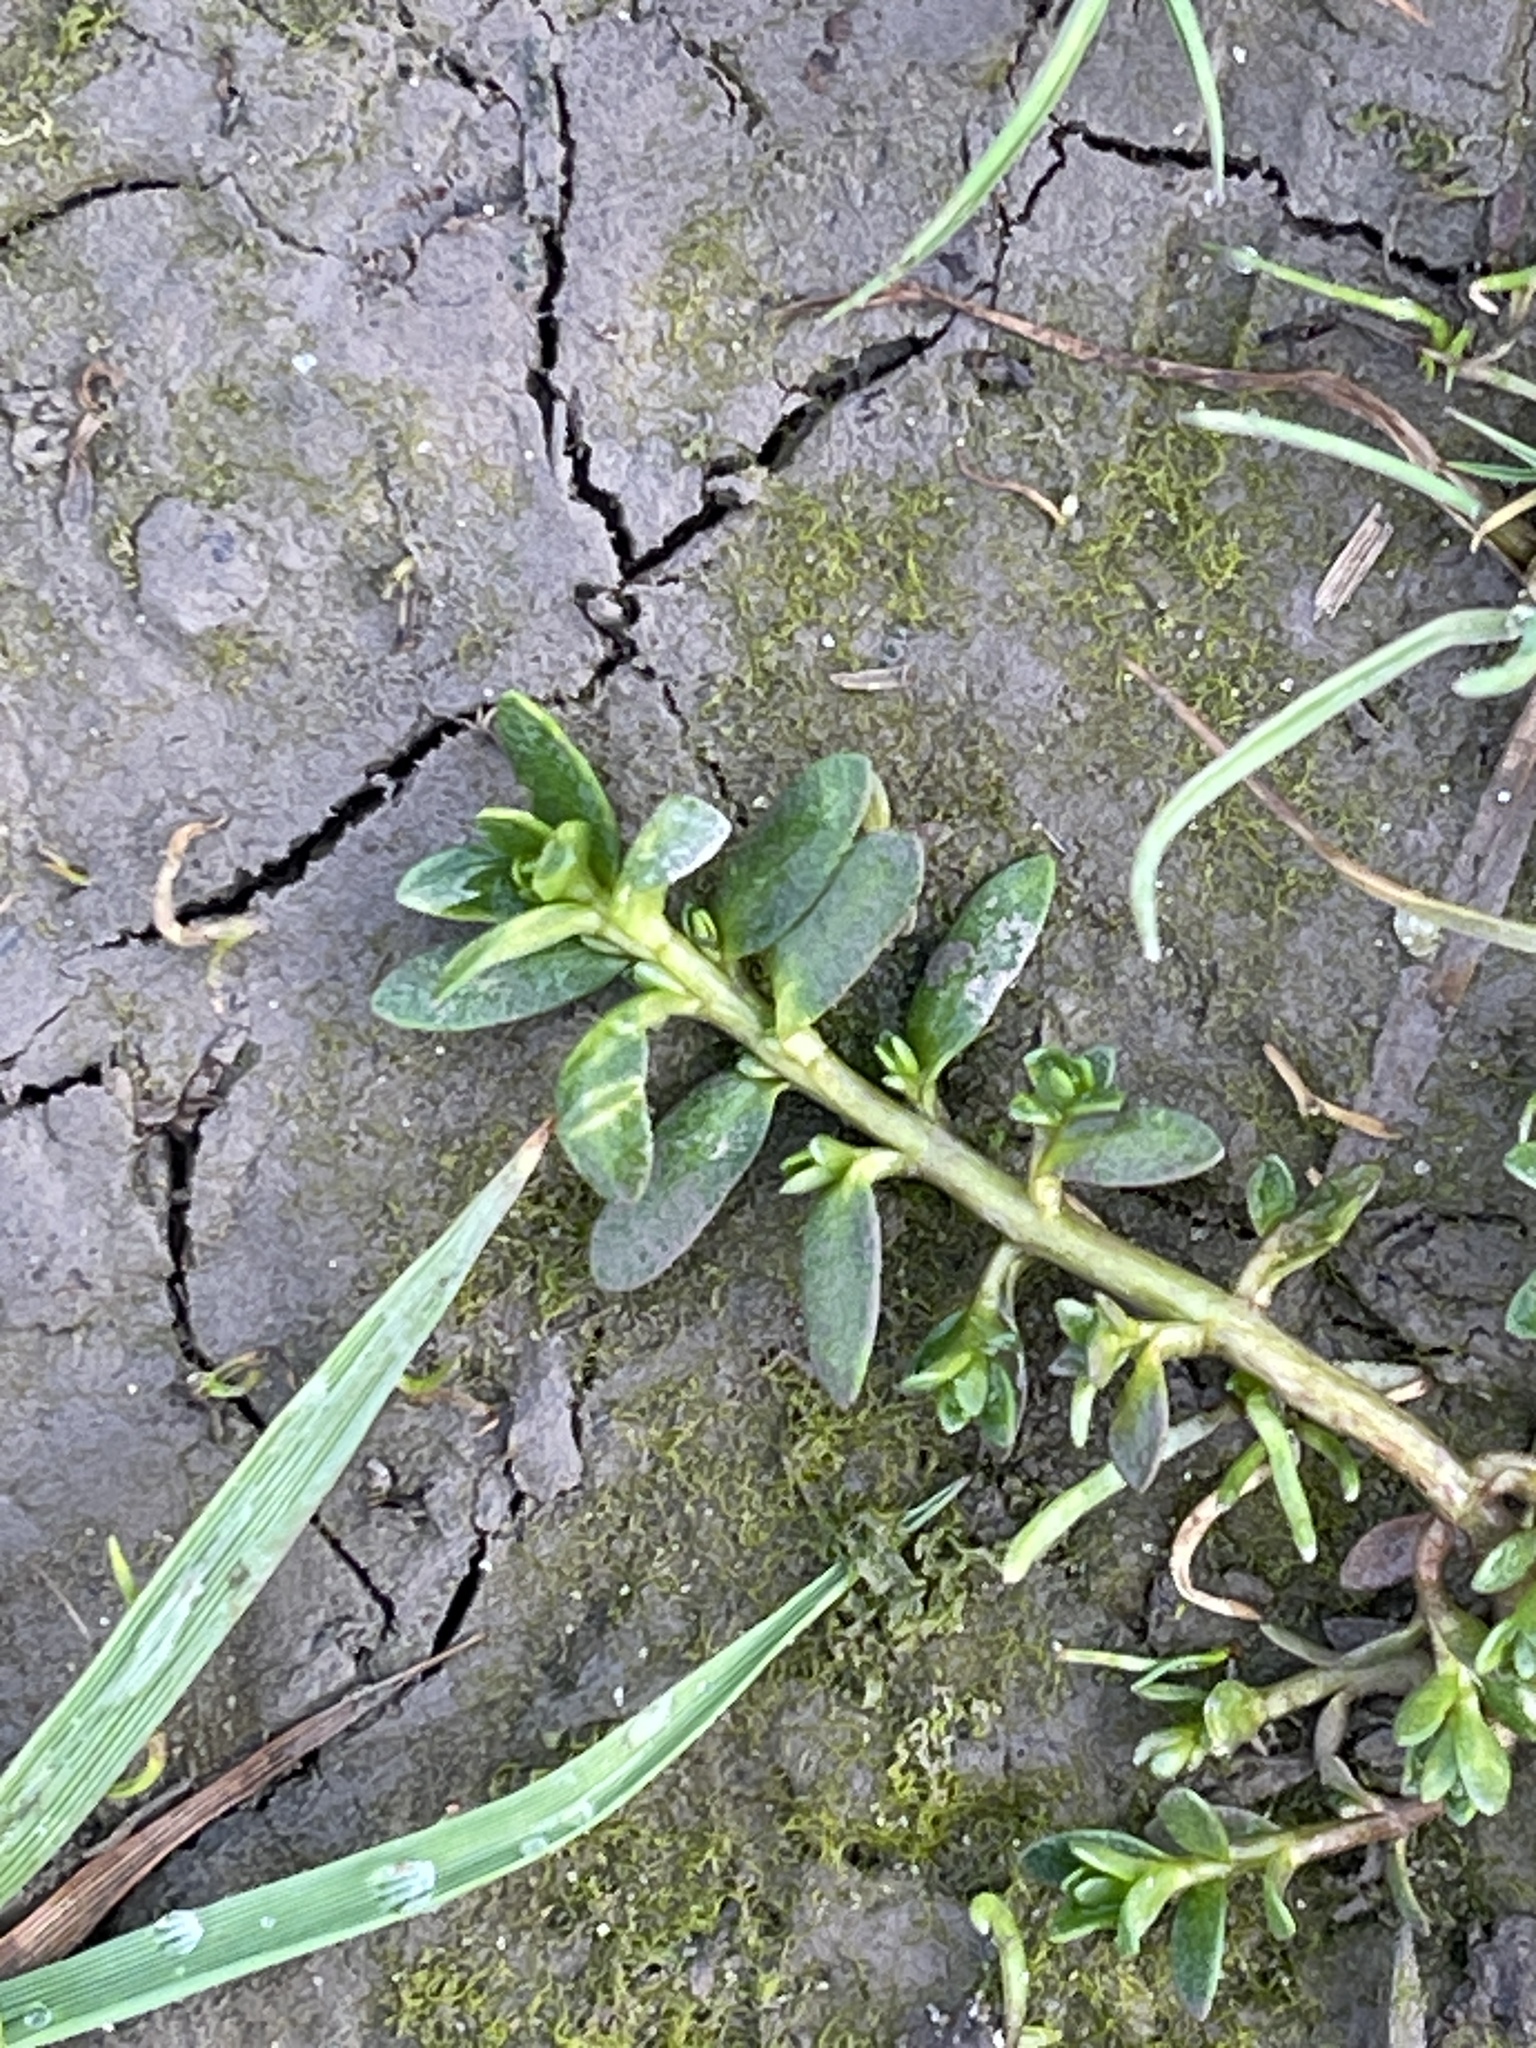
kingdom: Plantae
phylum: Tracheophyta
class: Magnoliopsida
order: Ericales
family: Primulaceae
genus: Lysimachia
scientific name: Lysimachia maritima
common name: Sea milkwort
